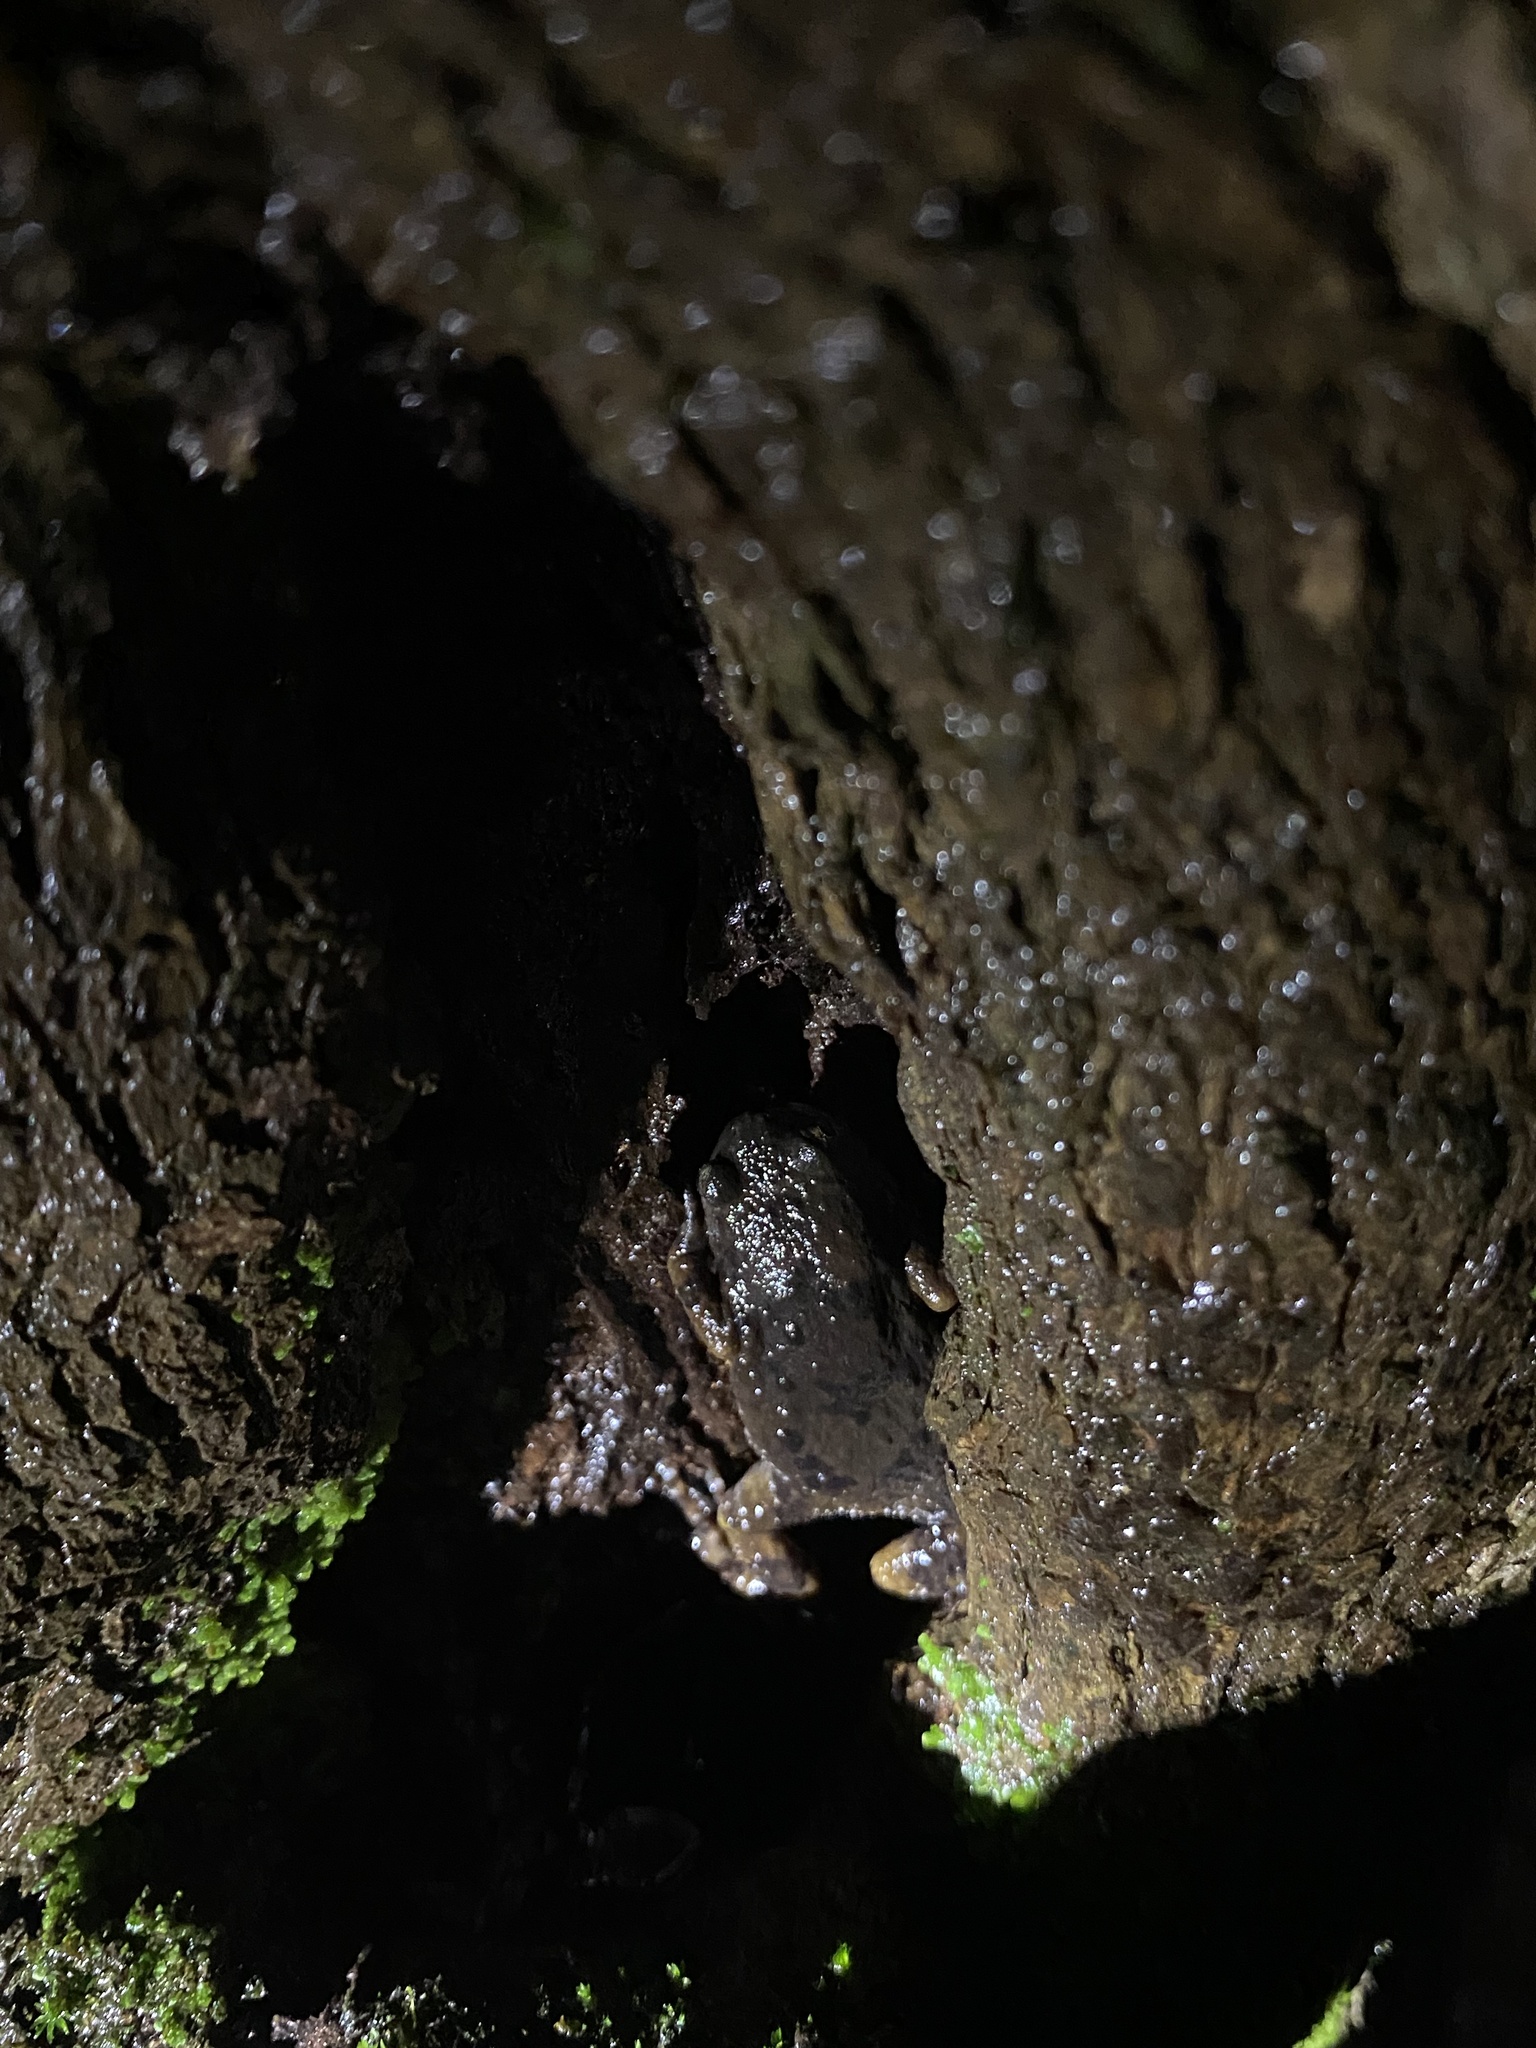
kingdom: Animalia
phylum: Chordata
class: Amphibia
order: Anura
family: Ranixalidae
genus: Indirana
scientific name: Indirana chiravasi
